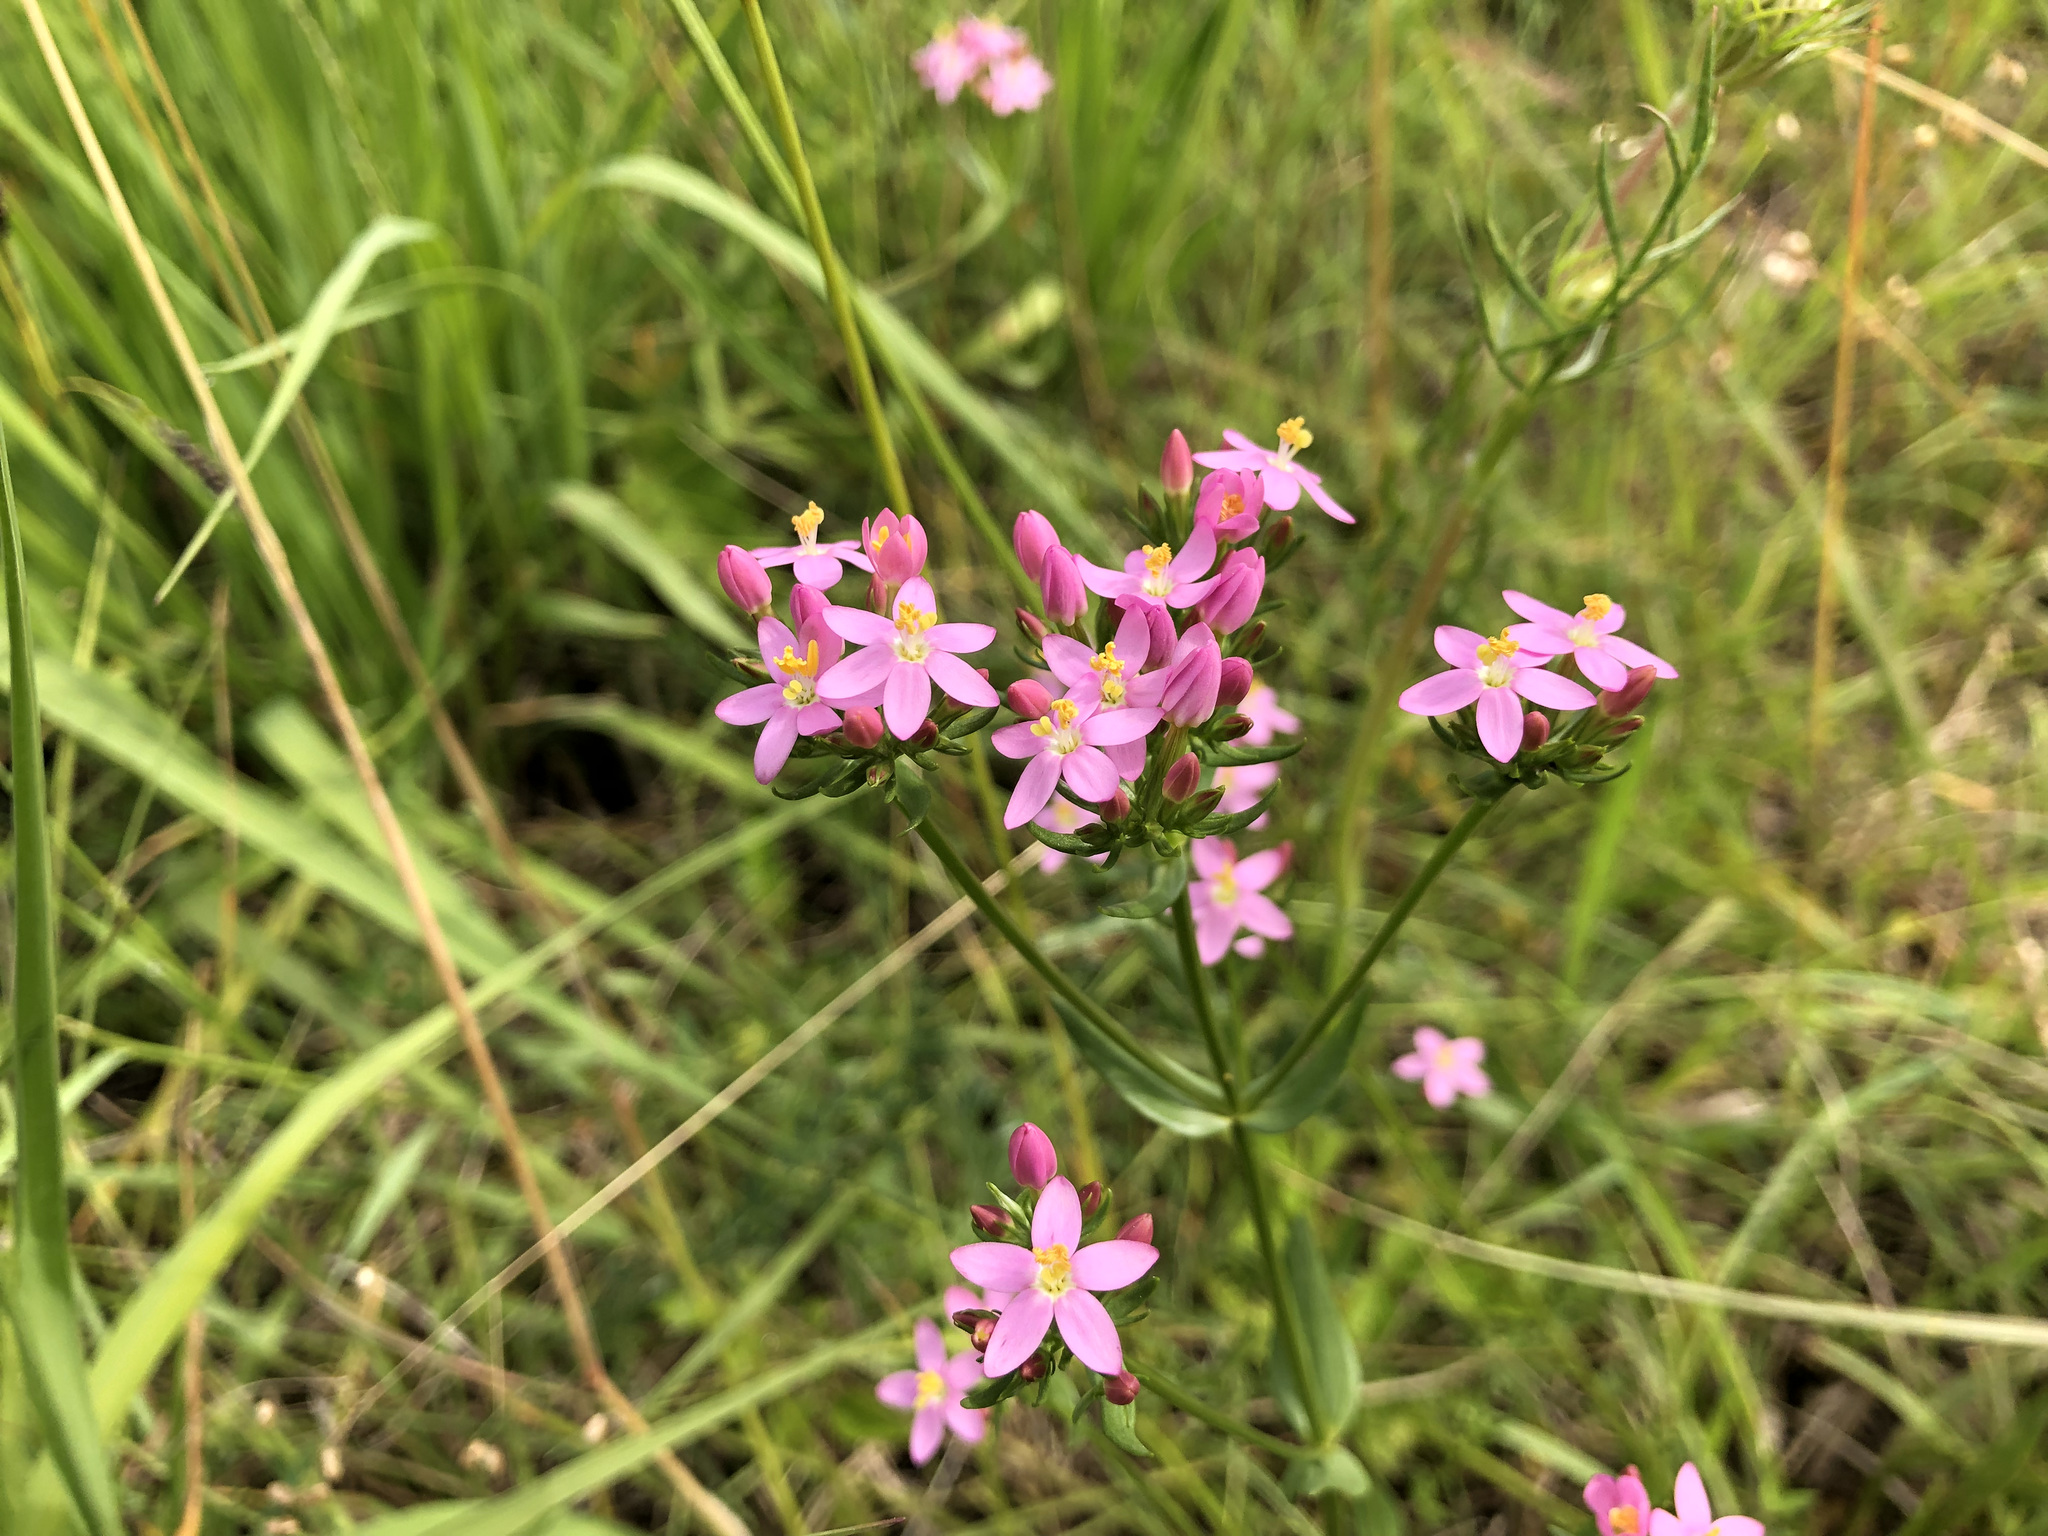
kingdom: Plantae
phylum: Tracheophyta
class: Magnoliopsida
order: Gentianales
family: Gentianaceae
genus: Centaurium
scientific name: Centaurium erythraea
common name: Common centaury
